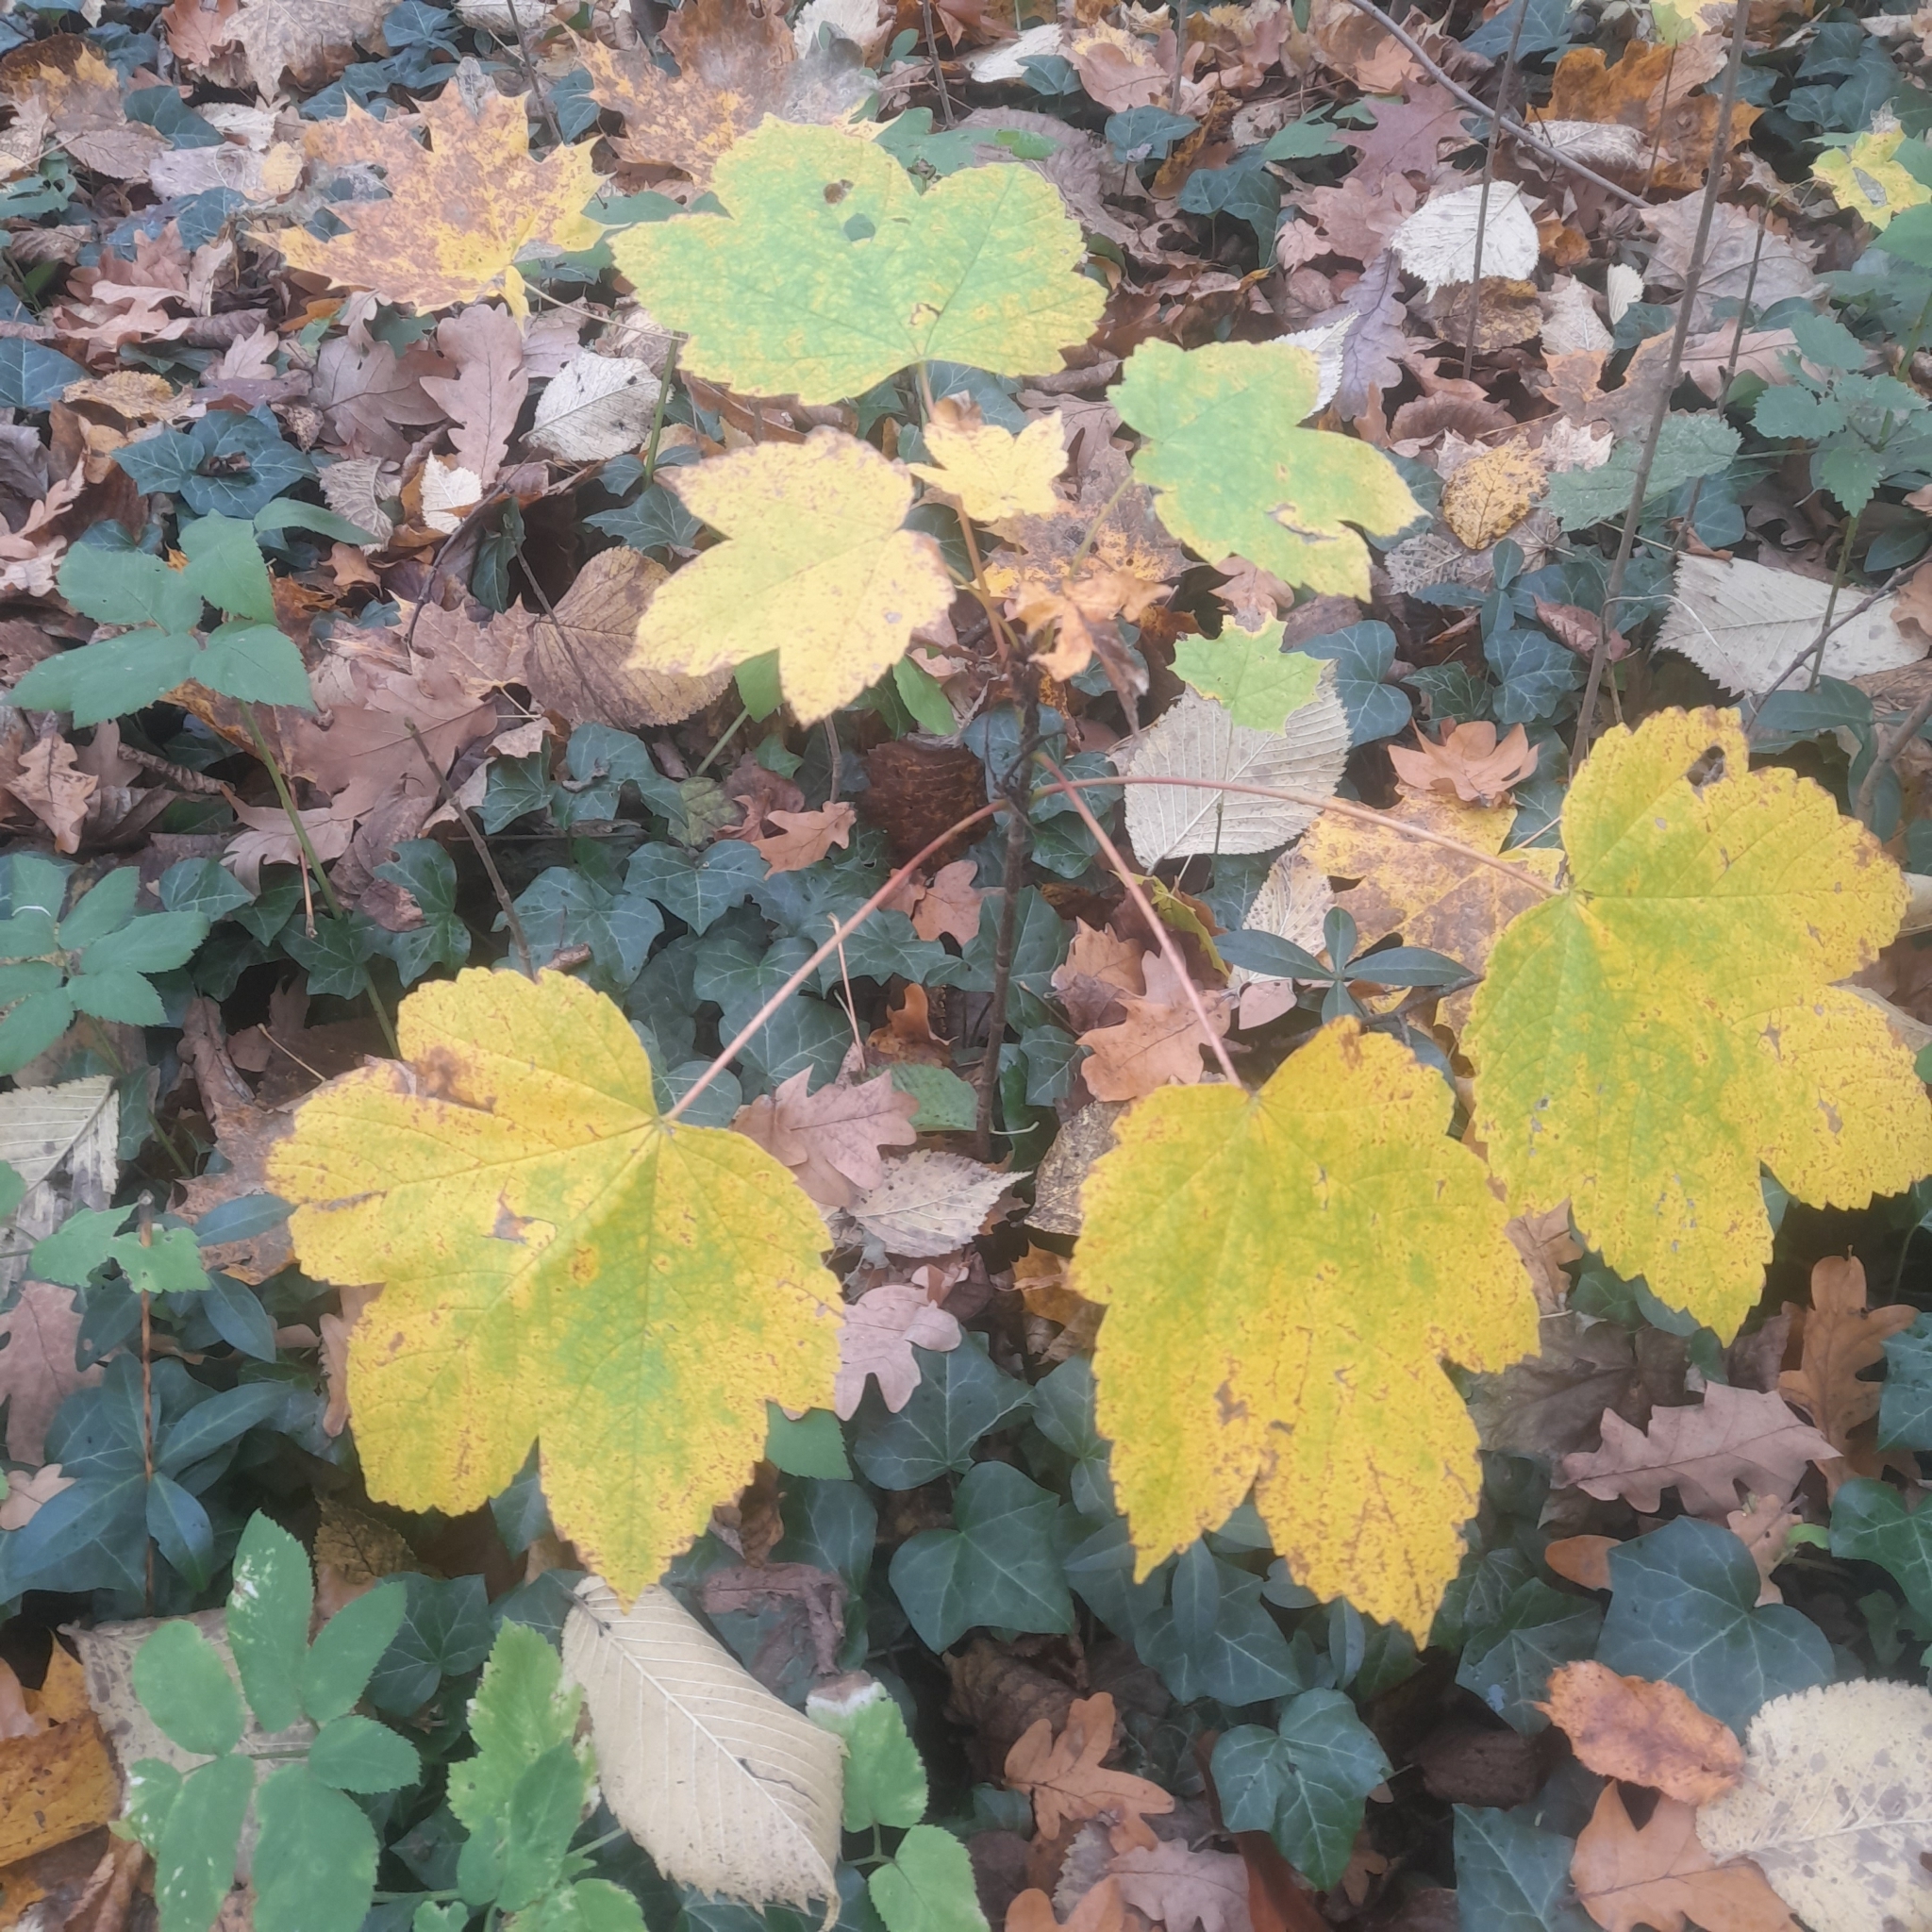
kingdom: Plantae
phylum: Tracheophyta
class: Magnoliopsida
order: Sapindales
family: Sapindaceae
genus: Acer
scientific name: Acer pseudoplatanus
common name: Sycamore
